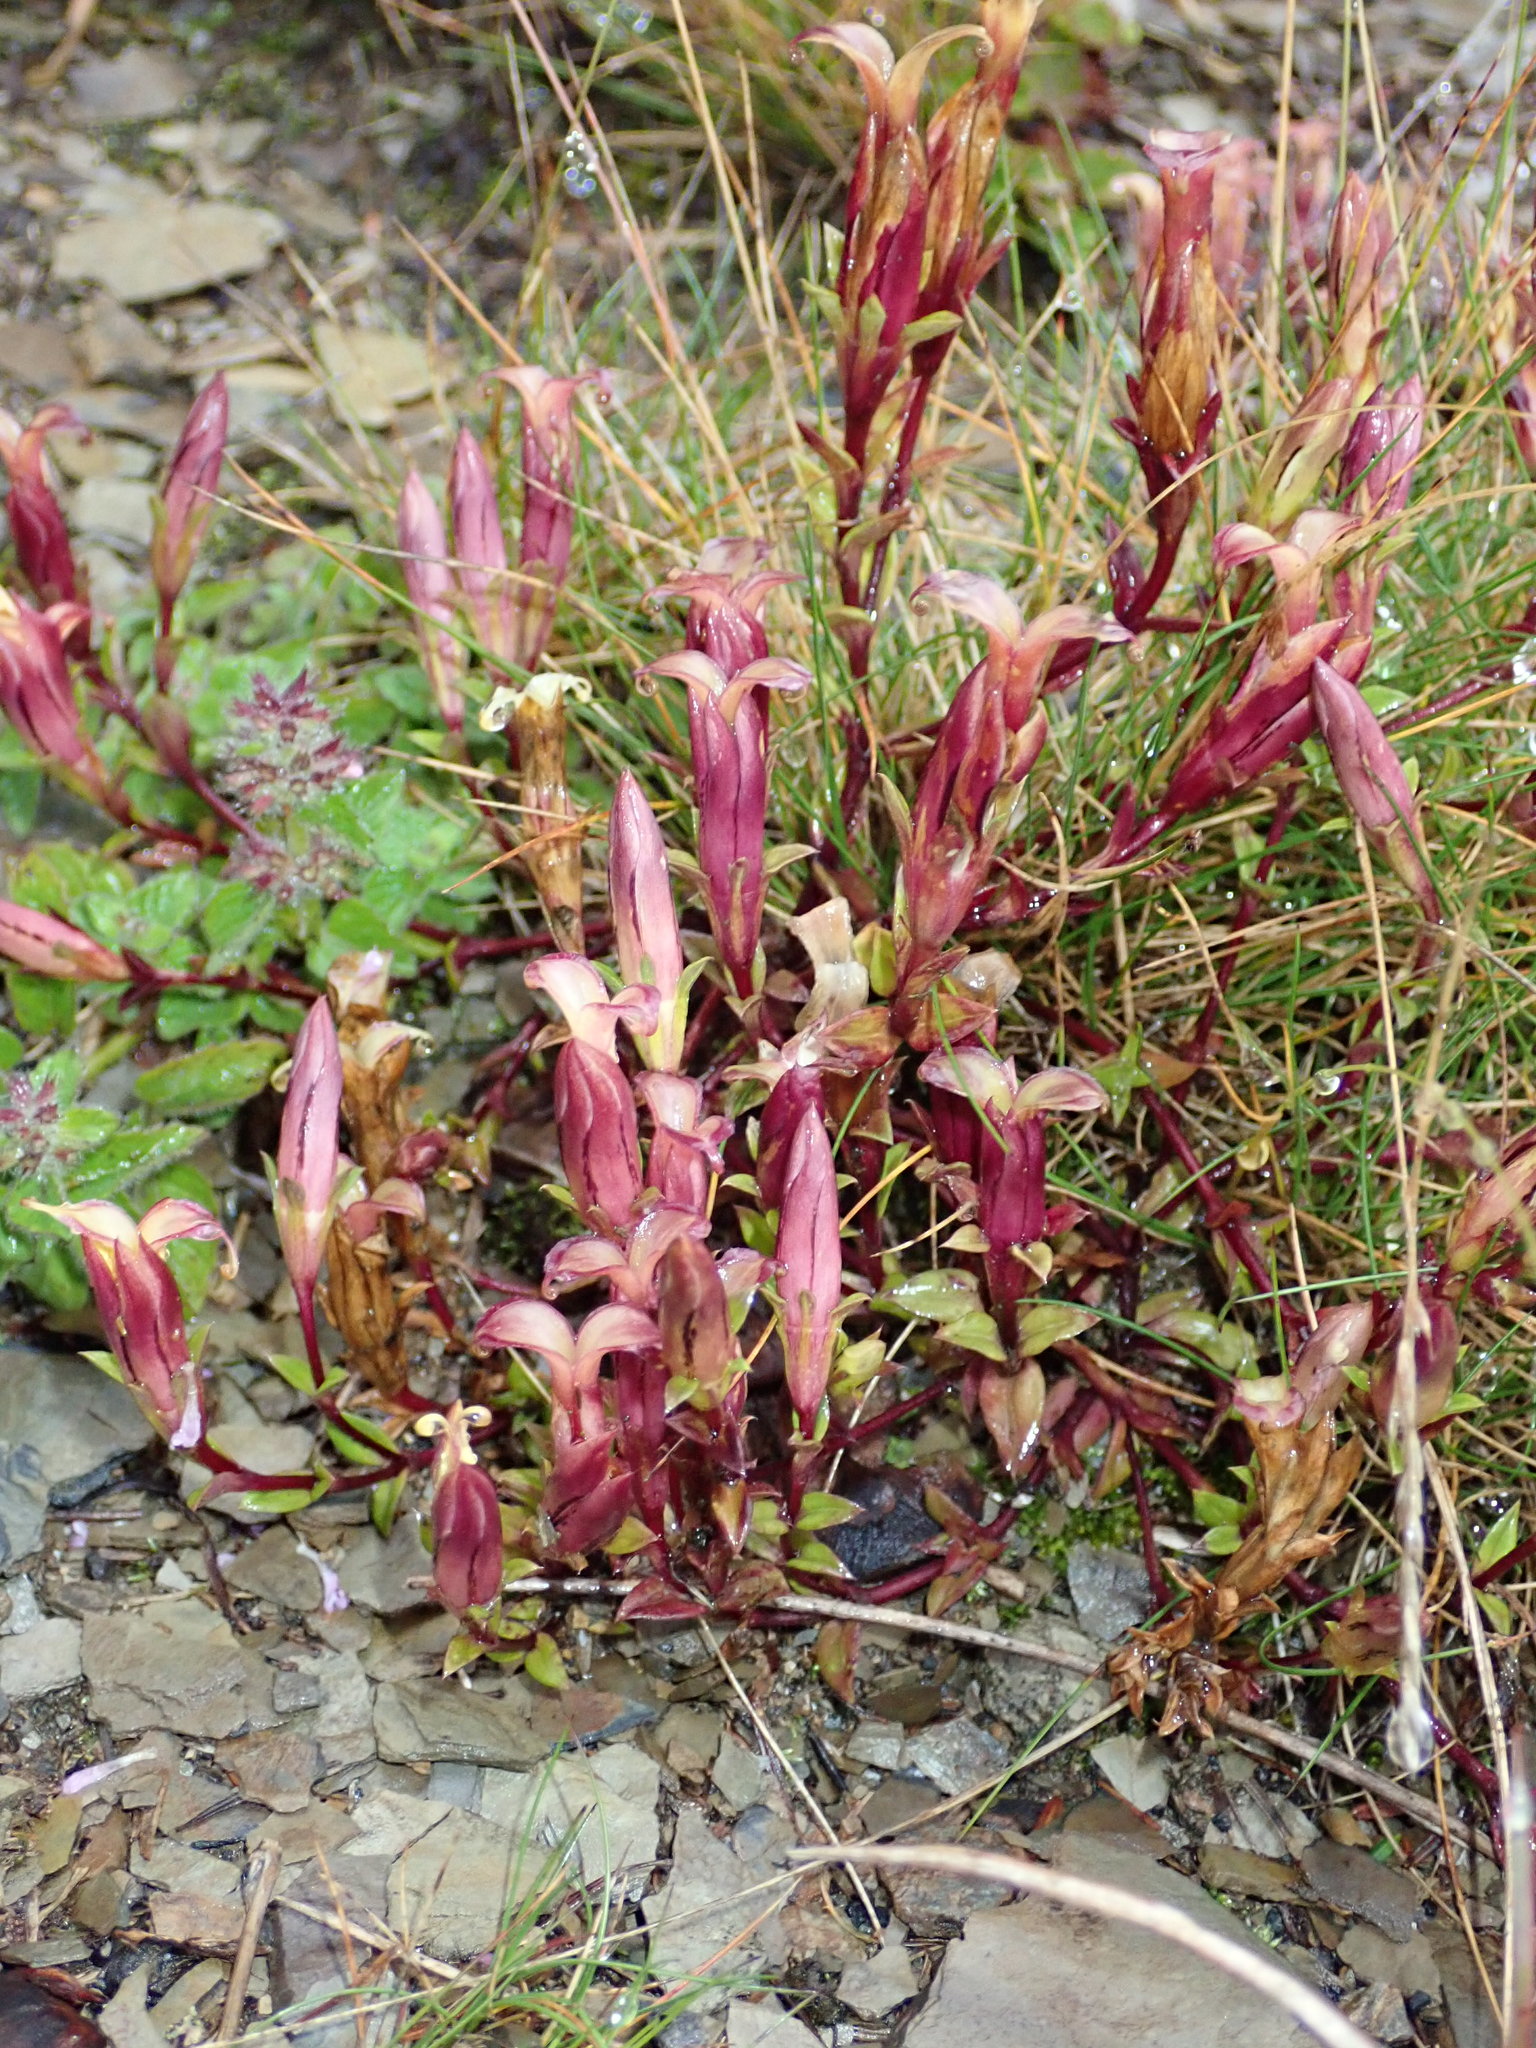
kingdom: Plantae
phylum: Tracheophyta
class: Magnoliopsida
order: Gentianales
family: Gentianaceae
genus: Gentiana
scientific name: Gentiana scabrida
